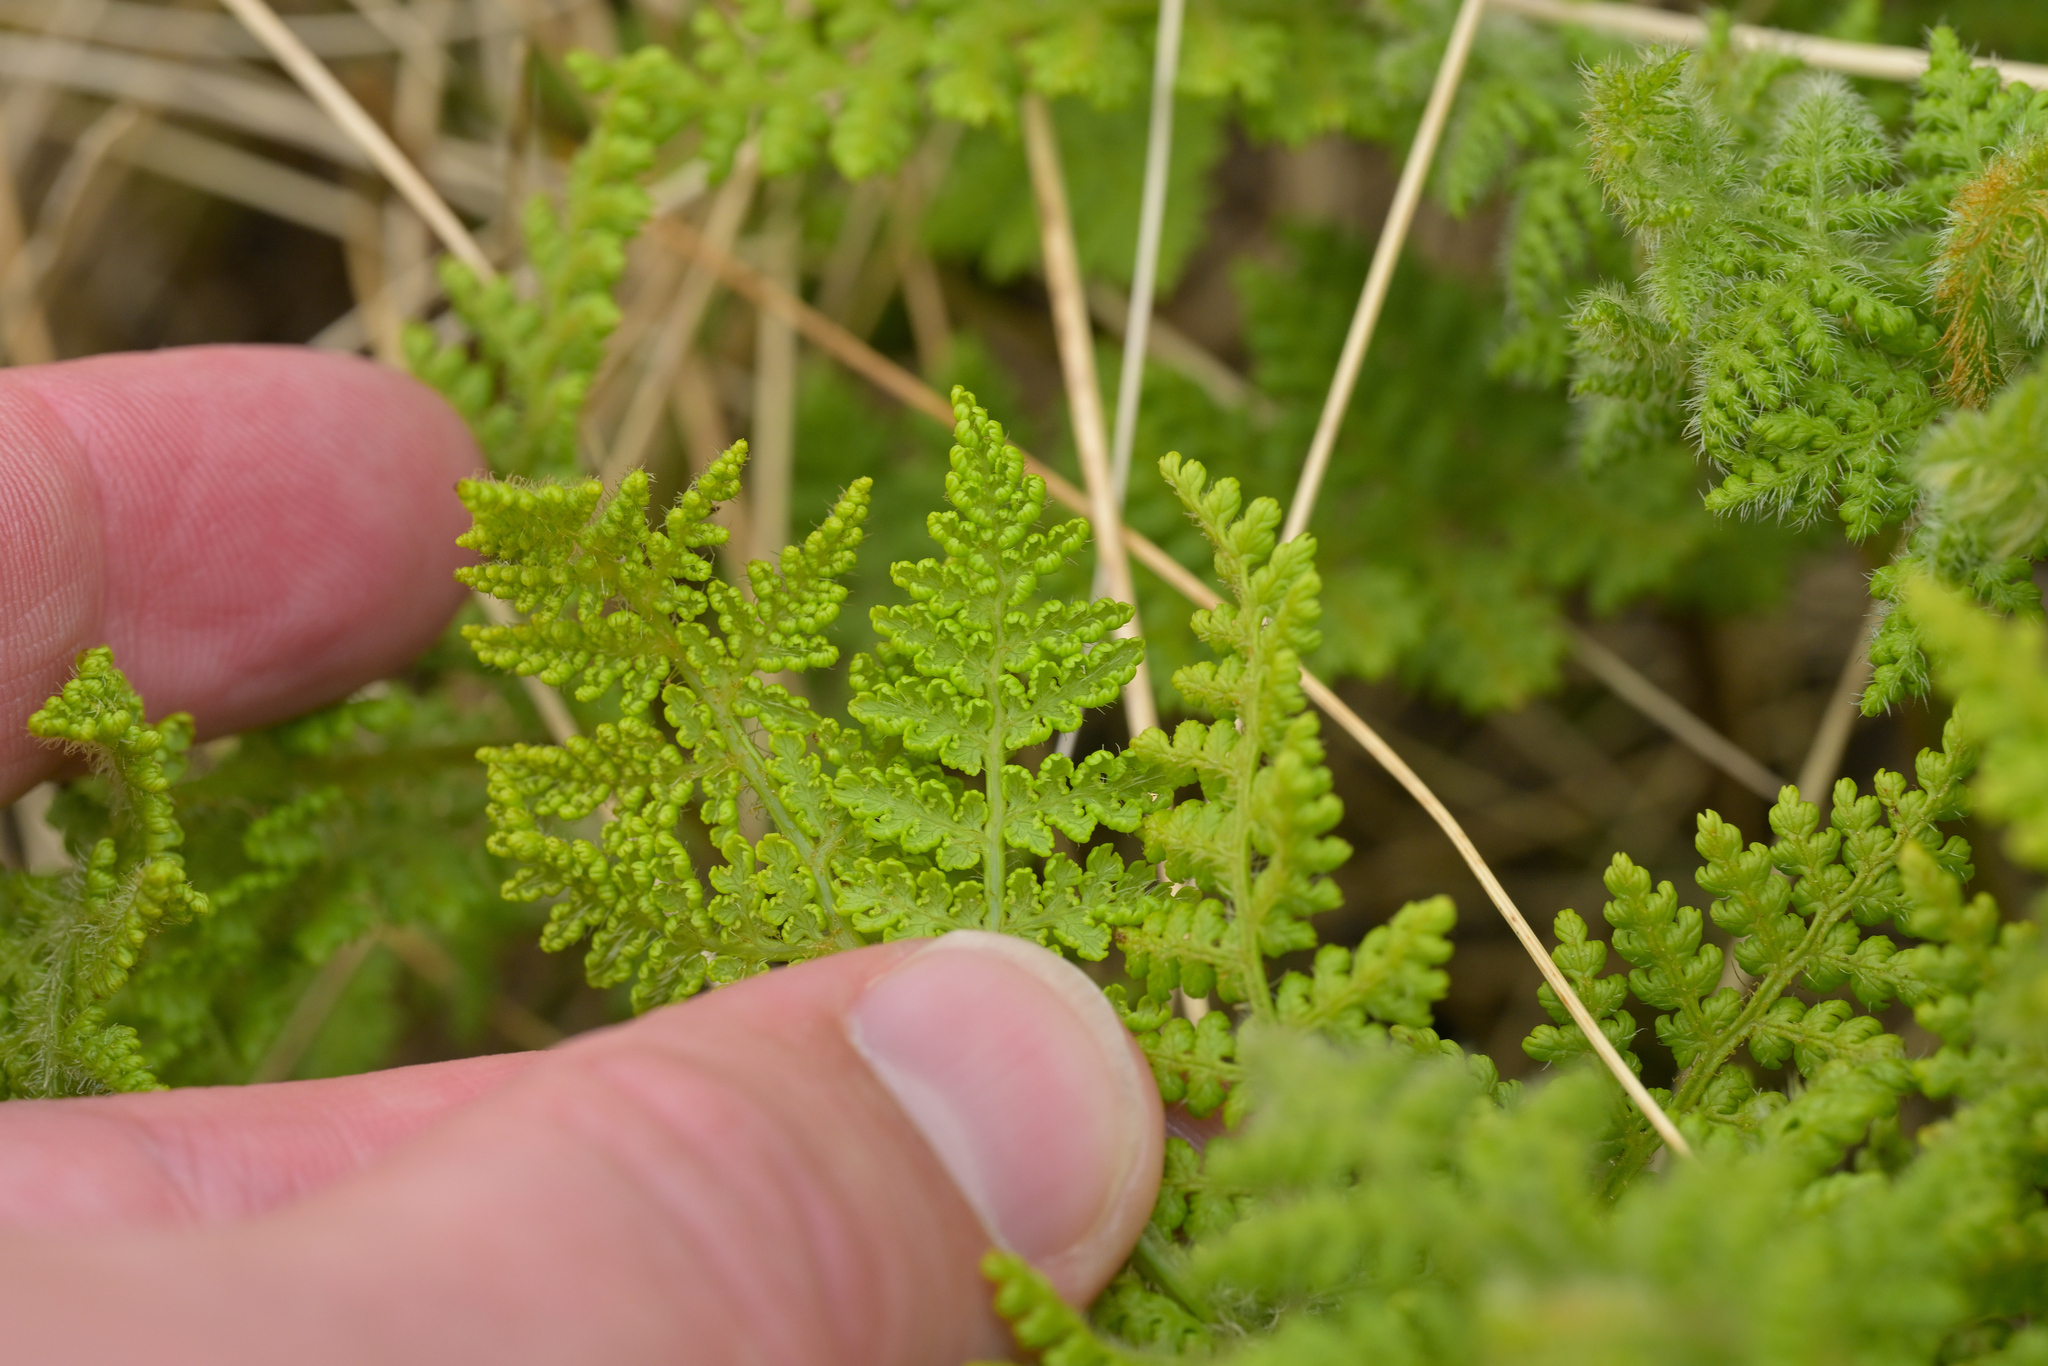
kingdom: Plantae
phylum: Tracheophyta
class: Polypodiopsida
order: Polypodiales
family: Dennstaedtiaceae
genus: Hypolepis
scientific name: Hypolepis millefolium
